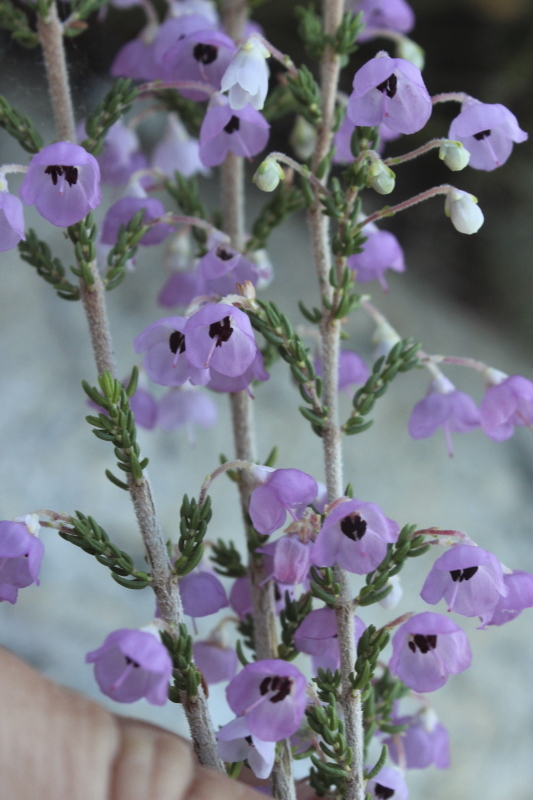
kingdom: Plantae
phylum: Tracheophyta
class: Magnoliopsida
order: Ericales
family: Ericaceae
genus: Erica
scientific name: Erica melanthera
